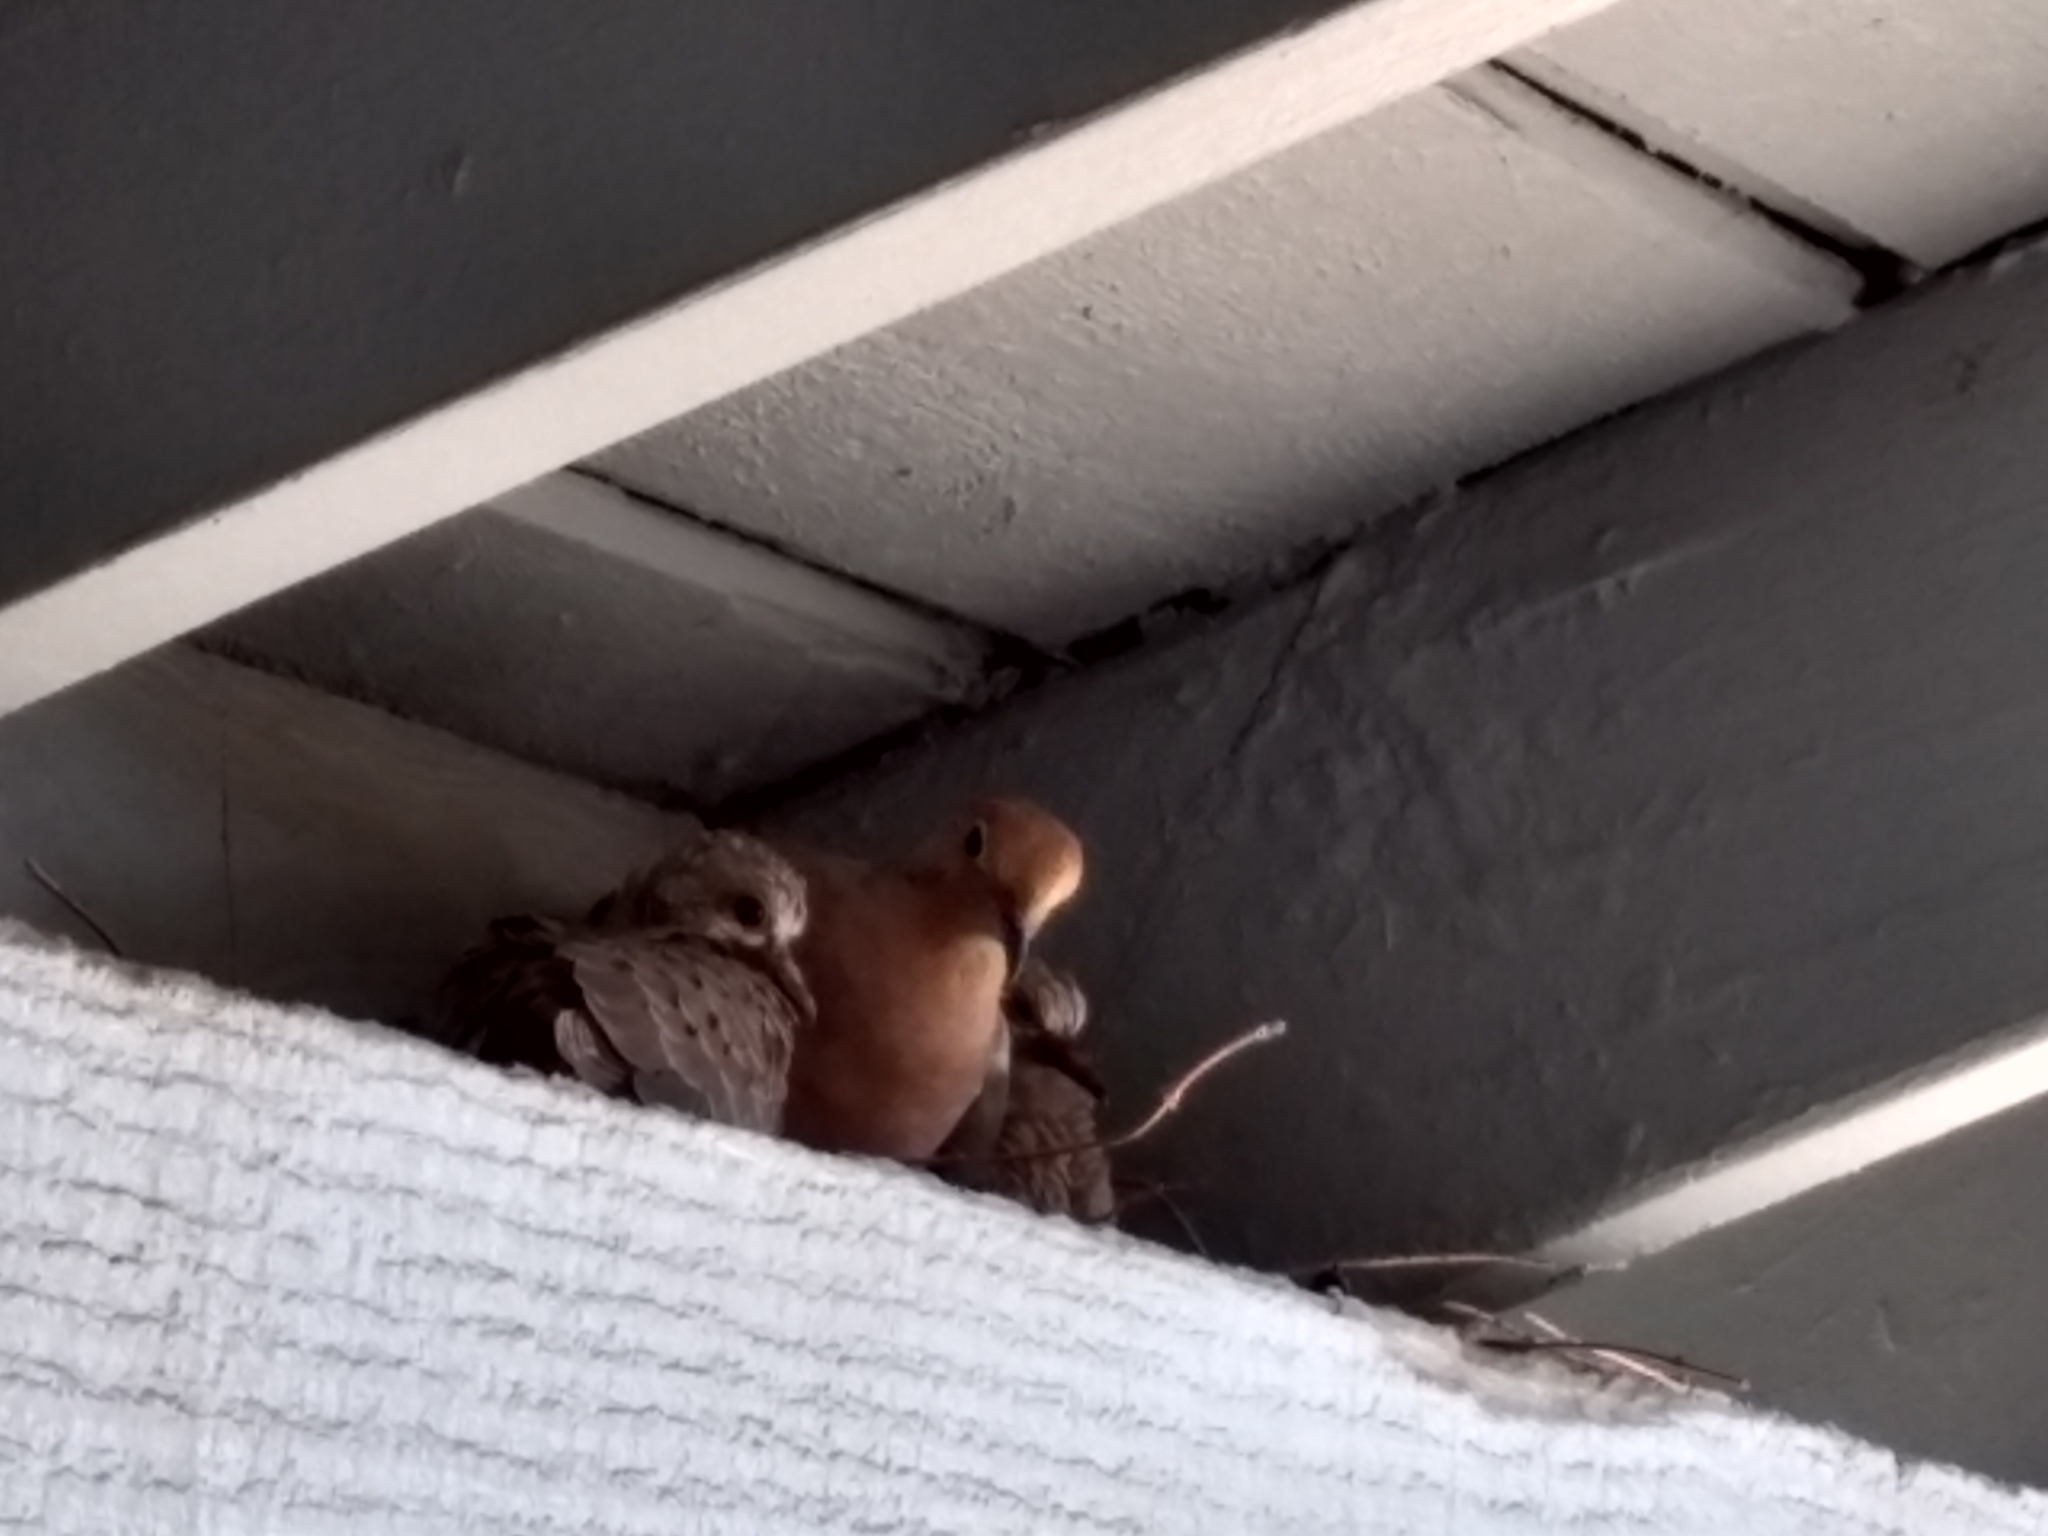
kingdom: Animalia
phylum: Chordata
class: Aves
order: Columbiformes
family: Columbidae
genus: Zenaida
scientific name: Zenaida macroura
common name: Mourning dove
